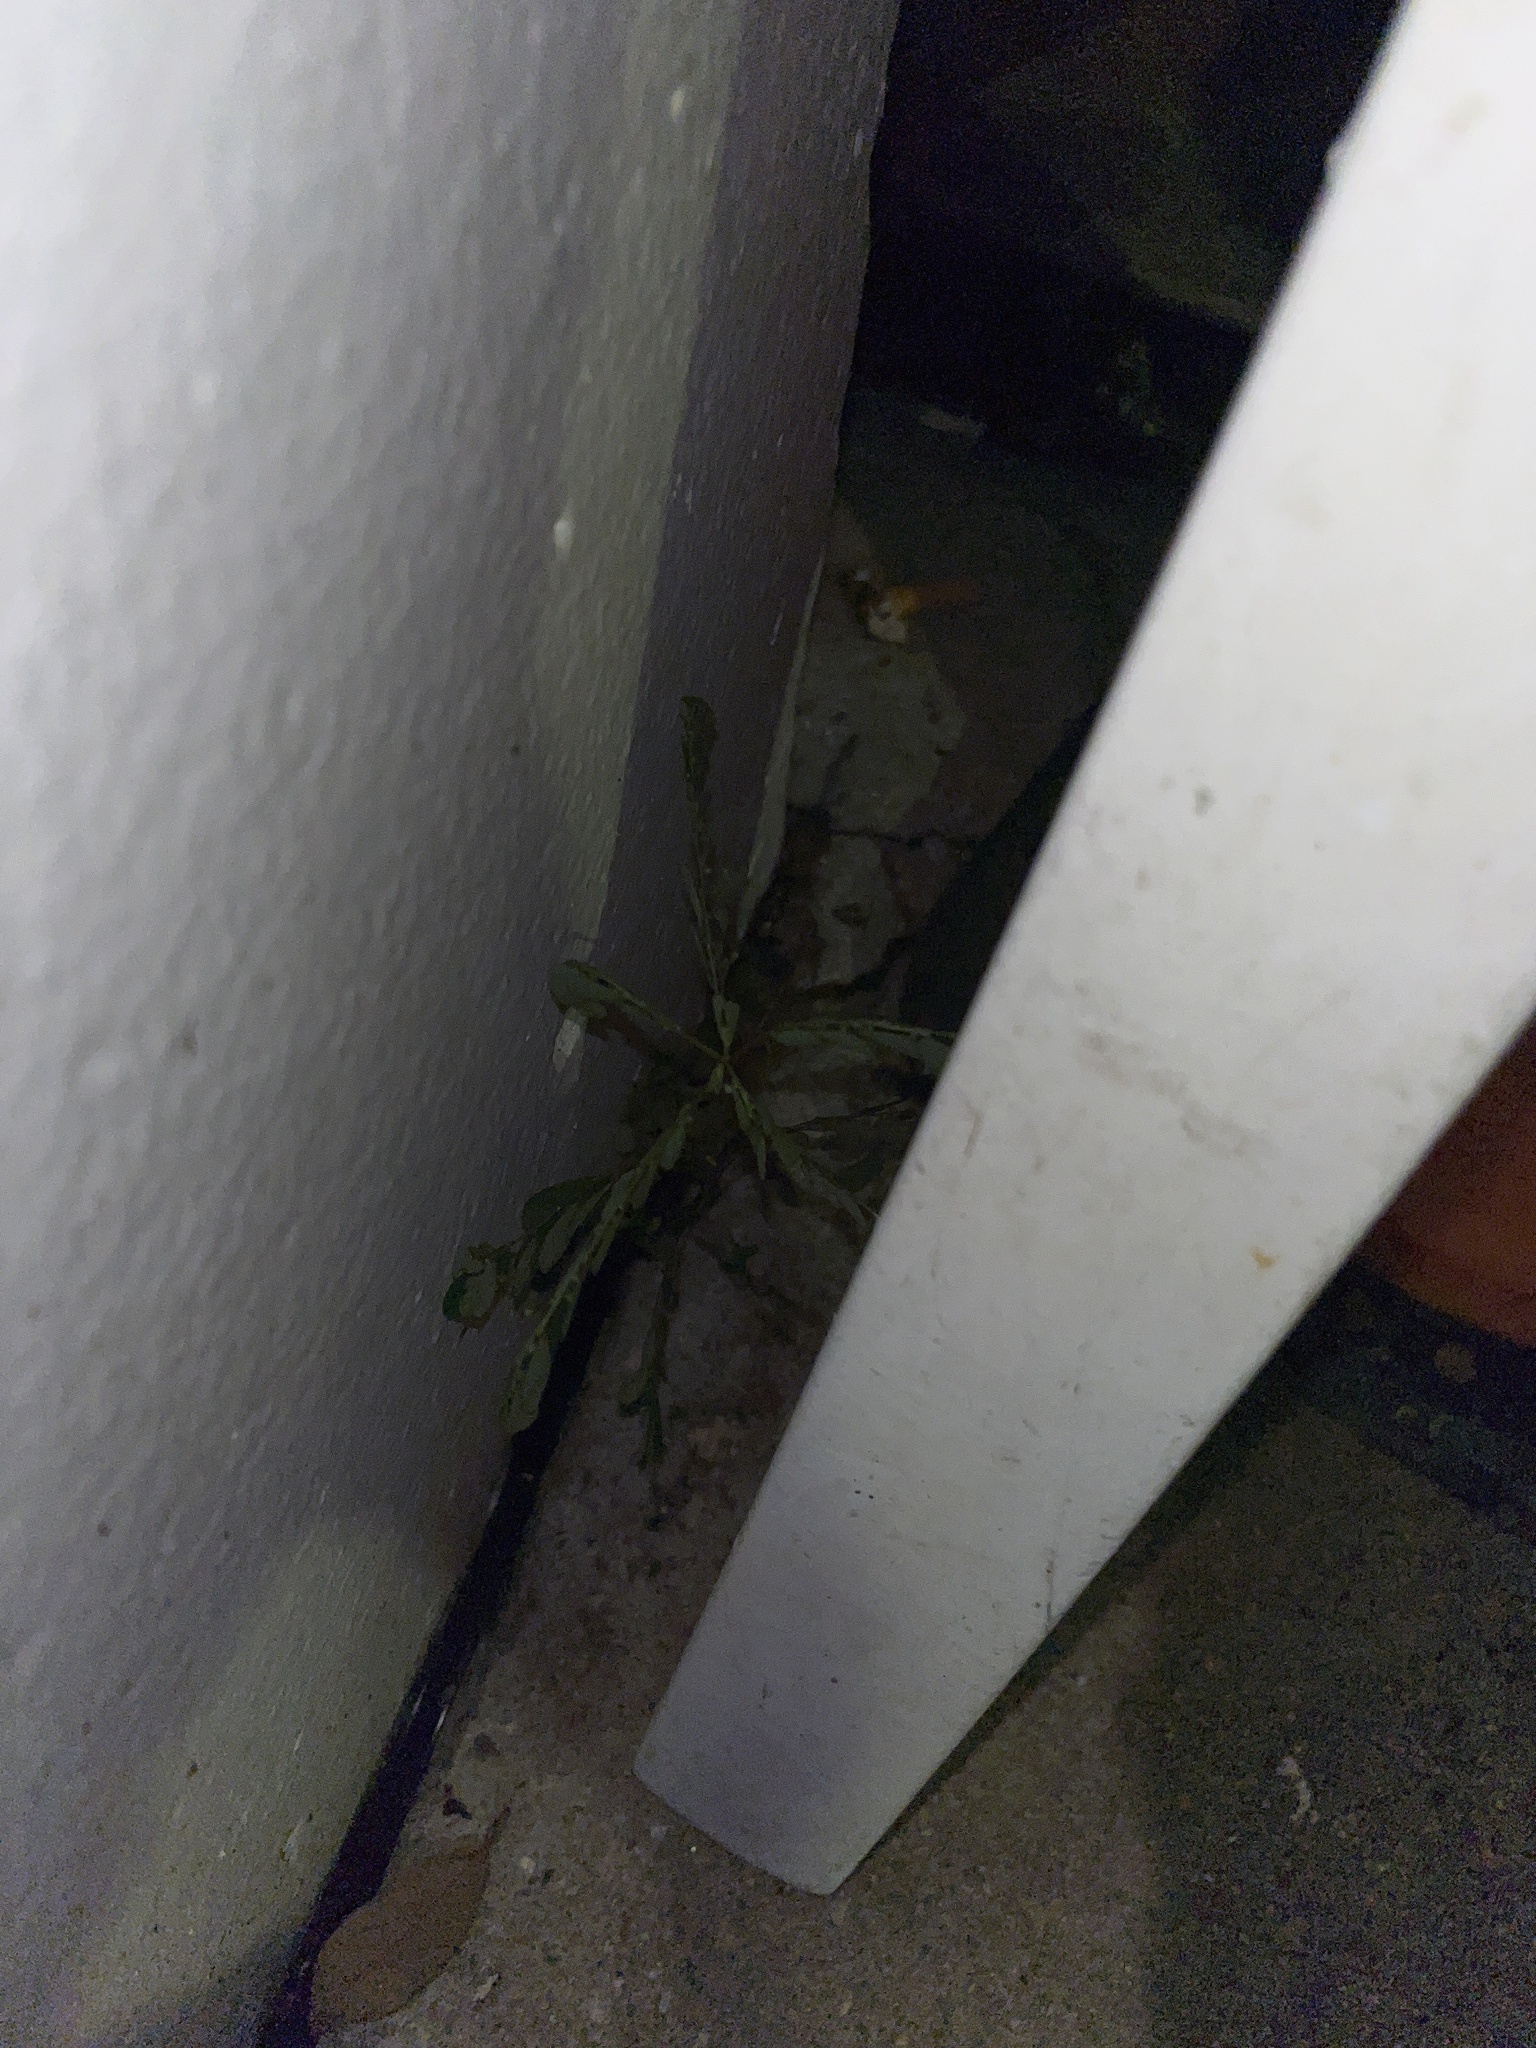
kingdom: Plantae
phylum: Tracheophyta
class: Magnoliopsida
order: Malpighiales
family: Phyllanthaceae
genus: Phyllanthus
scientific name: Phyllanthus urinaria
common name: Chamber bitter
